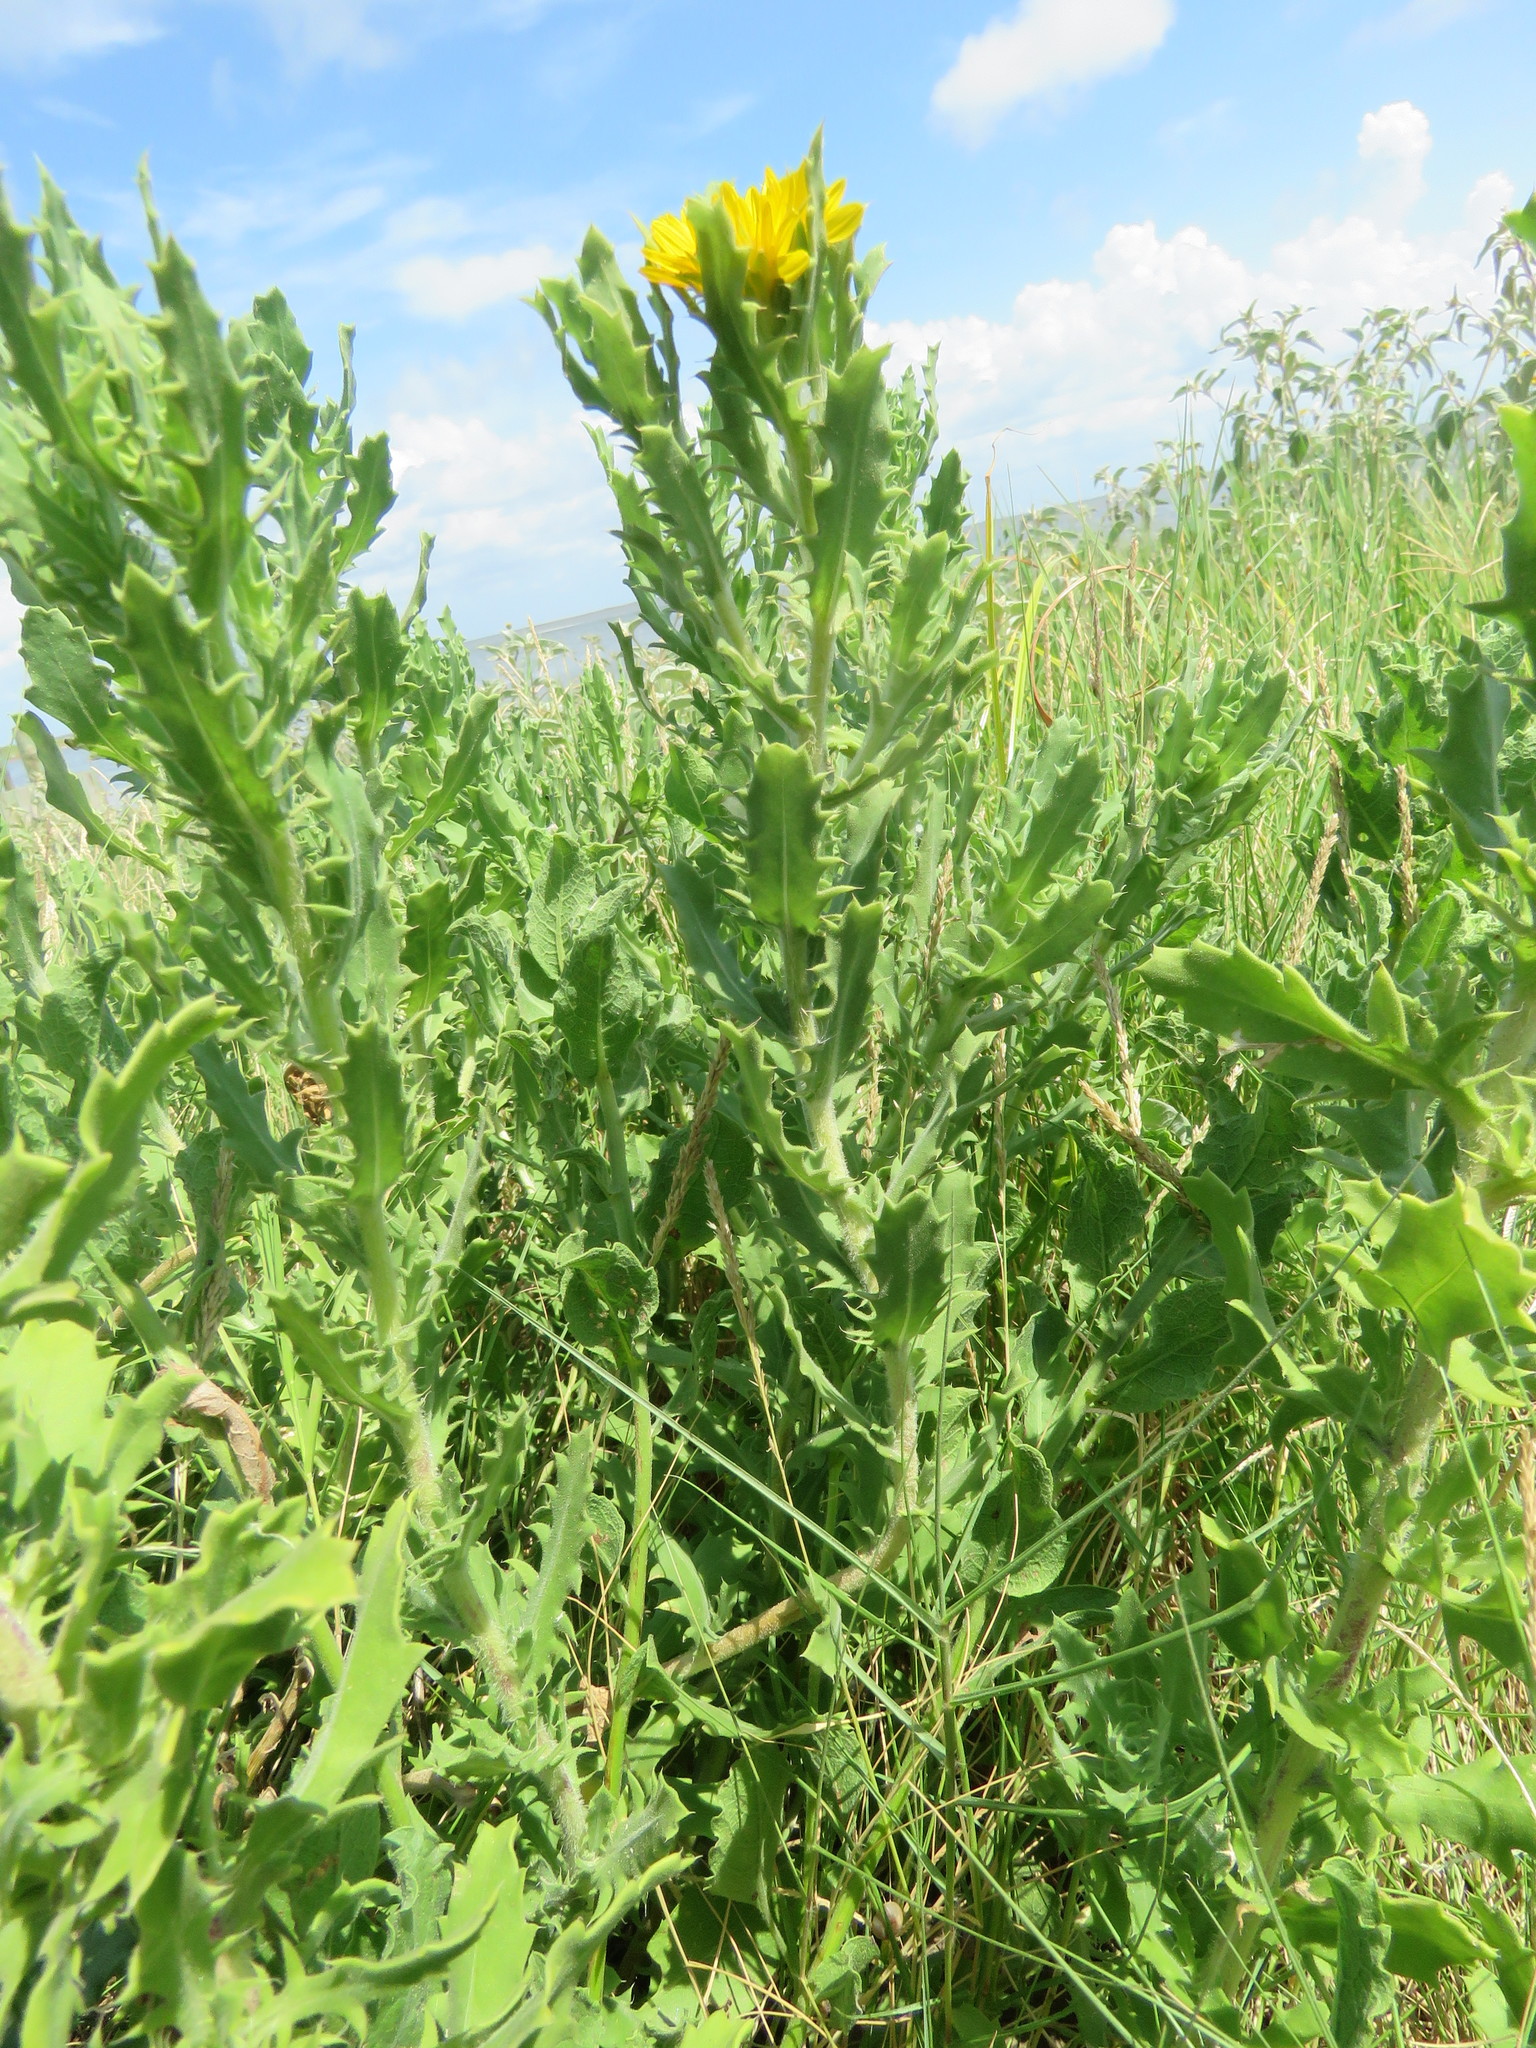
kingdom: Plantae
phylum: Tracheophyta
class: Magnoliopsida
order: Asterales
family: Asteraceae
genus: Rayjacksonia
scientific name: Rayjacksonia phyllocephala
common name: Gulf coast camphor daisy
